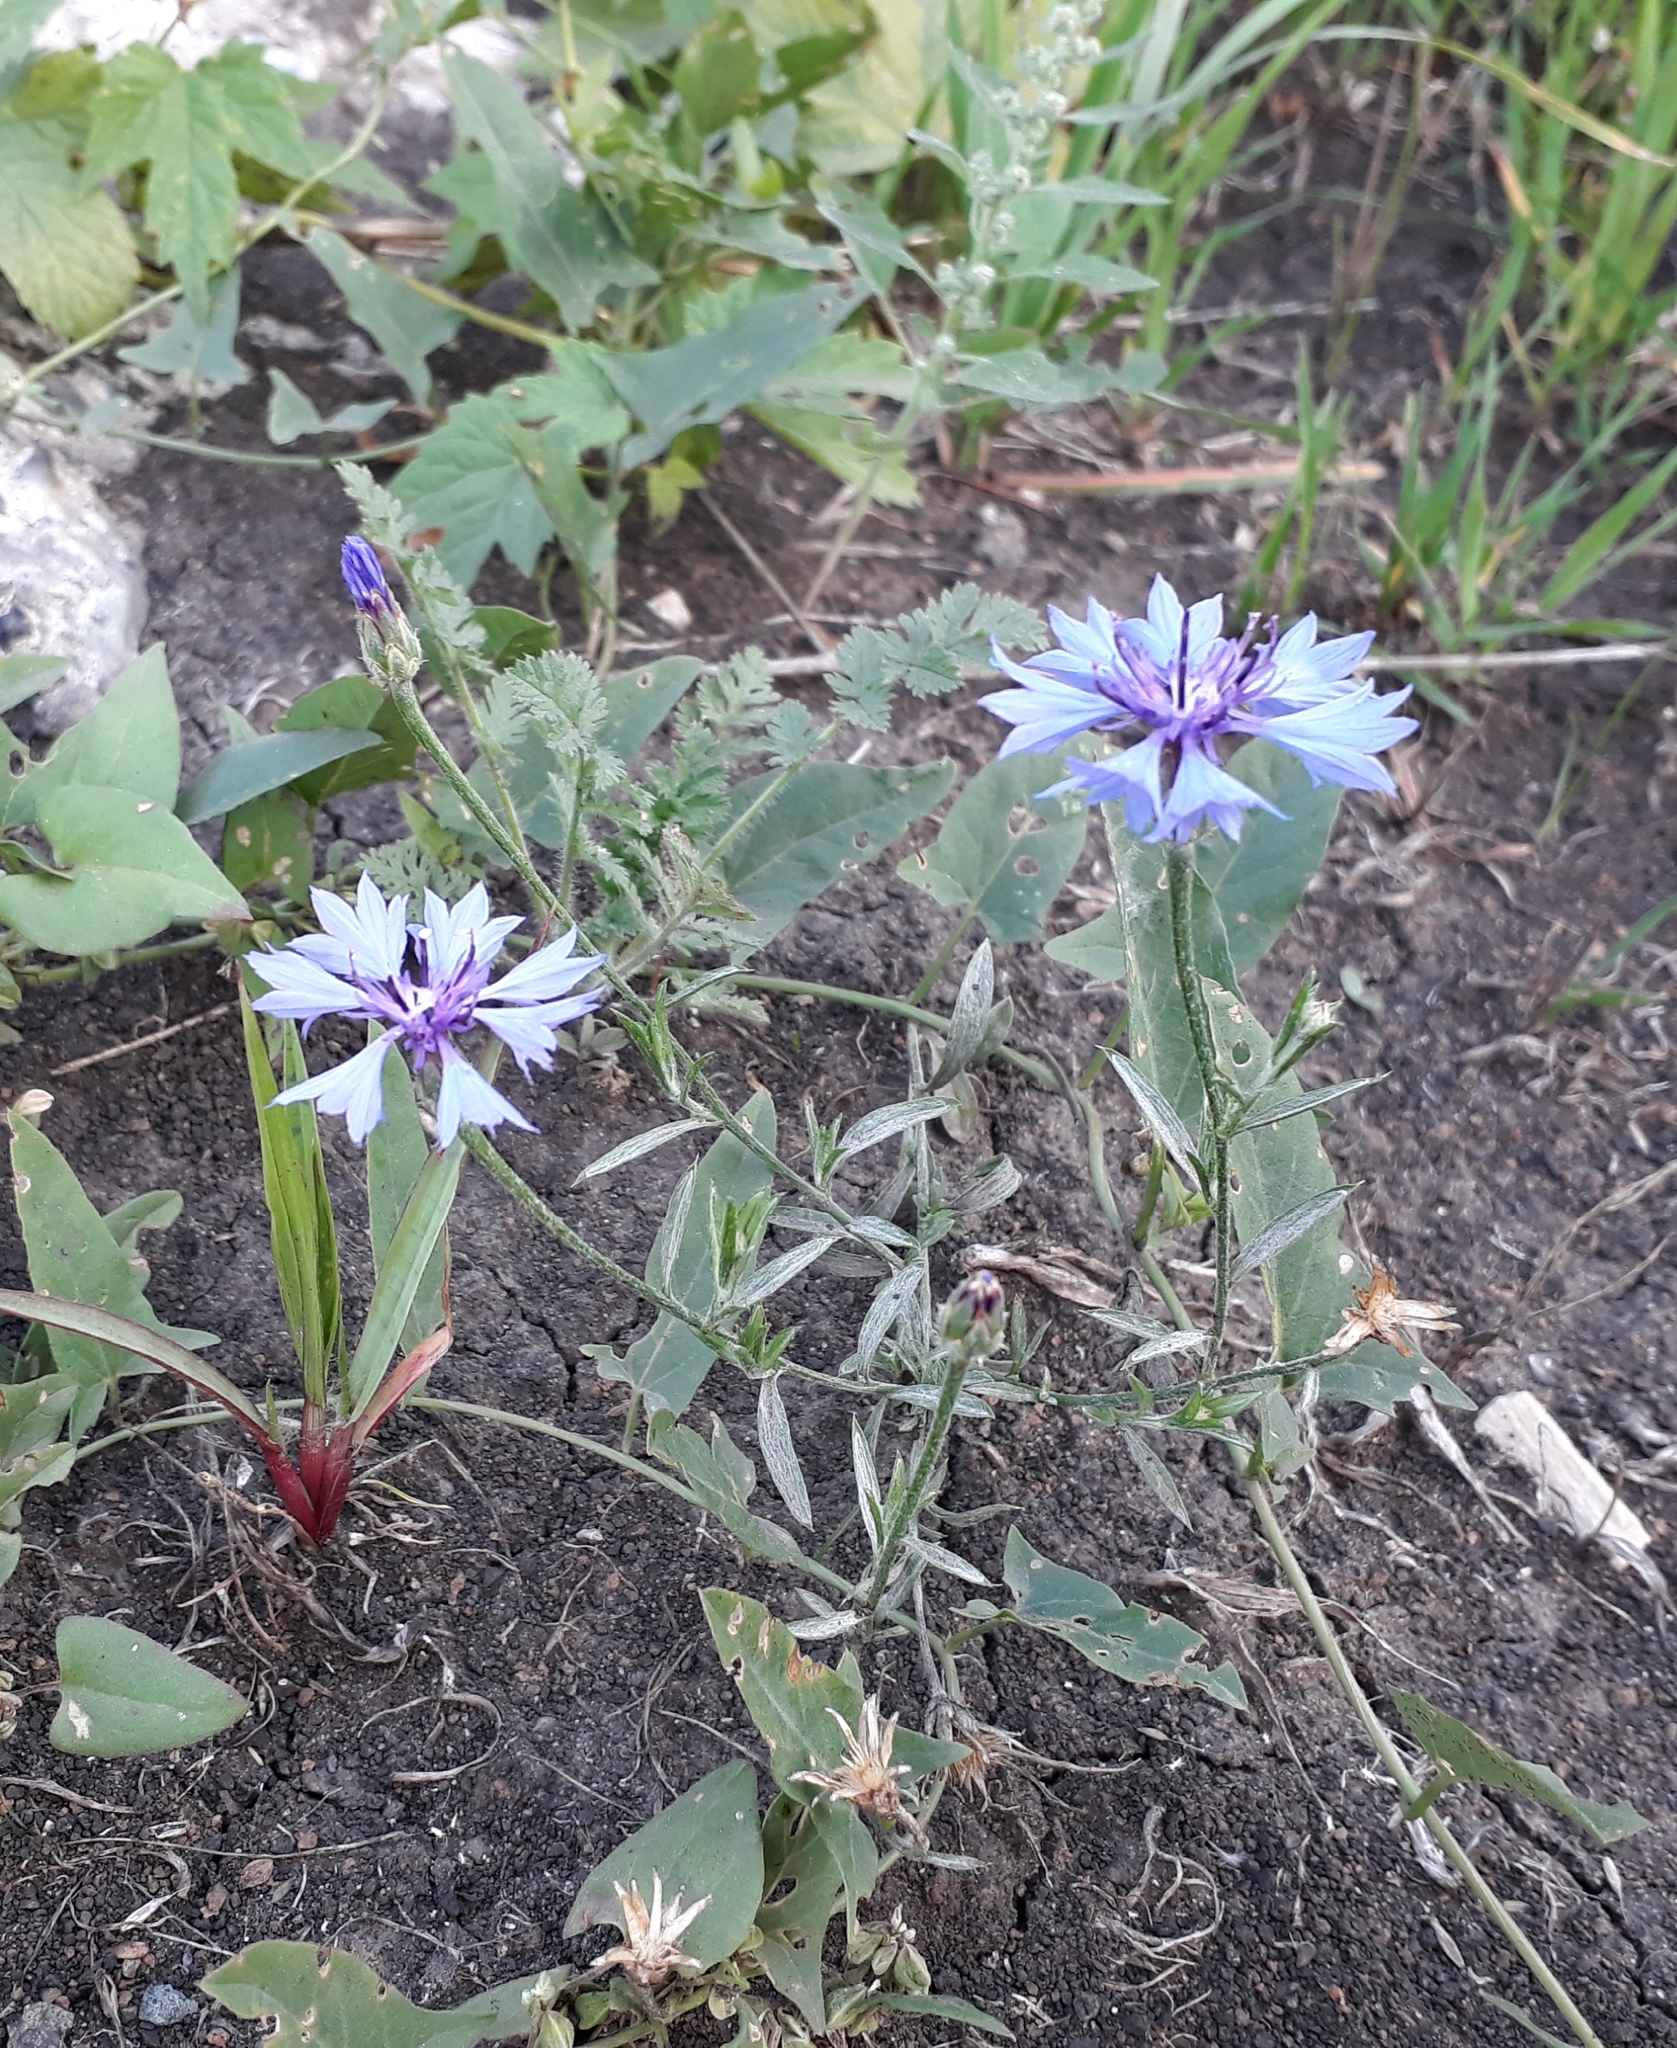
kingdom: Plantae
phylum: Tracheophyta
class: Magnoliopsida
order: Asterales
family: Asteraceae
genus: Centaurea
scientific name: Centaurea cyanus
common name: Cornflower
